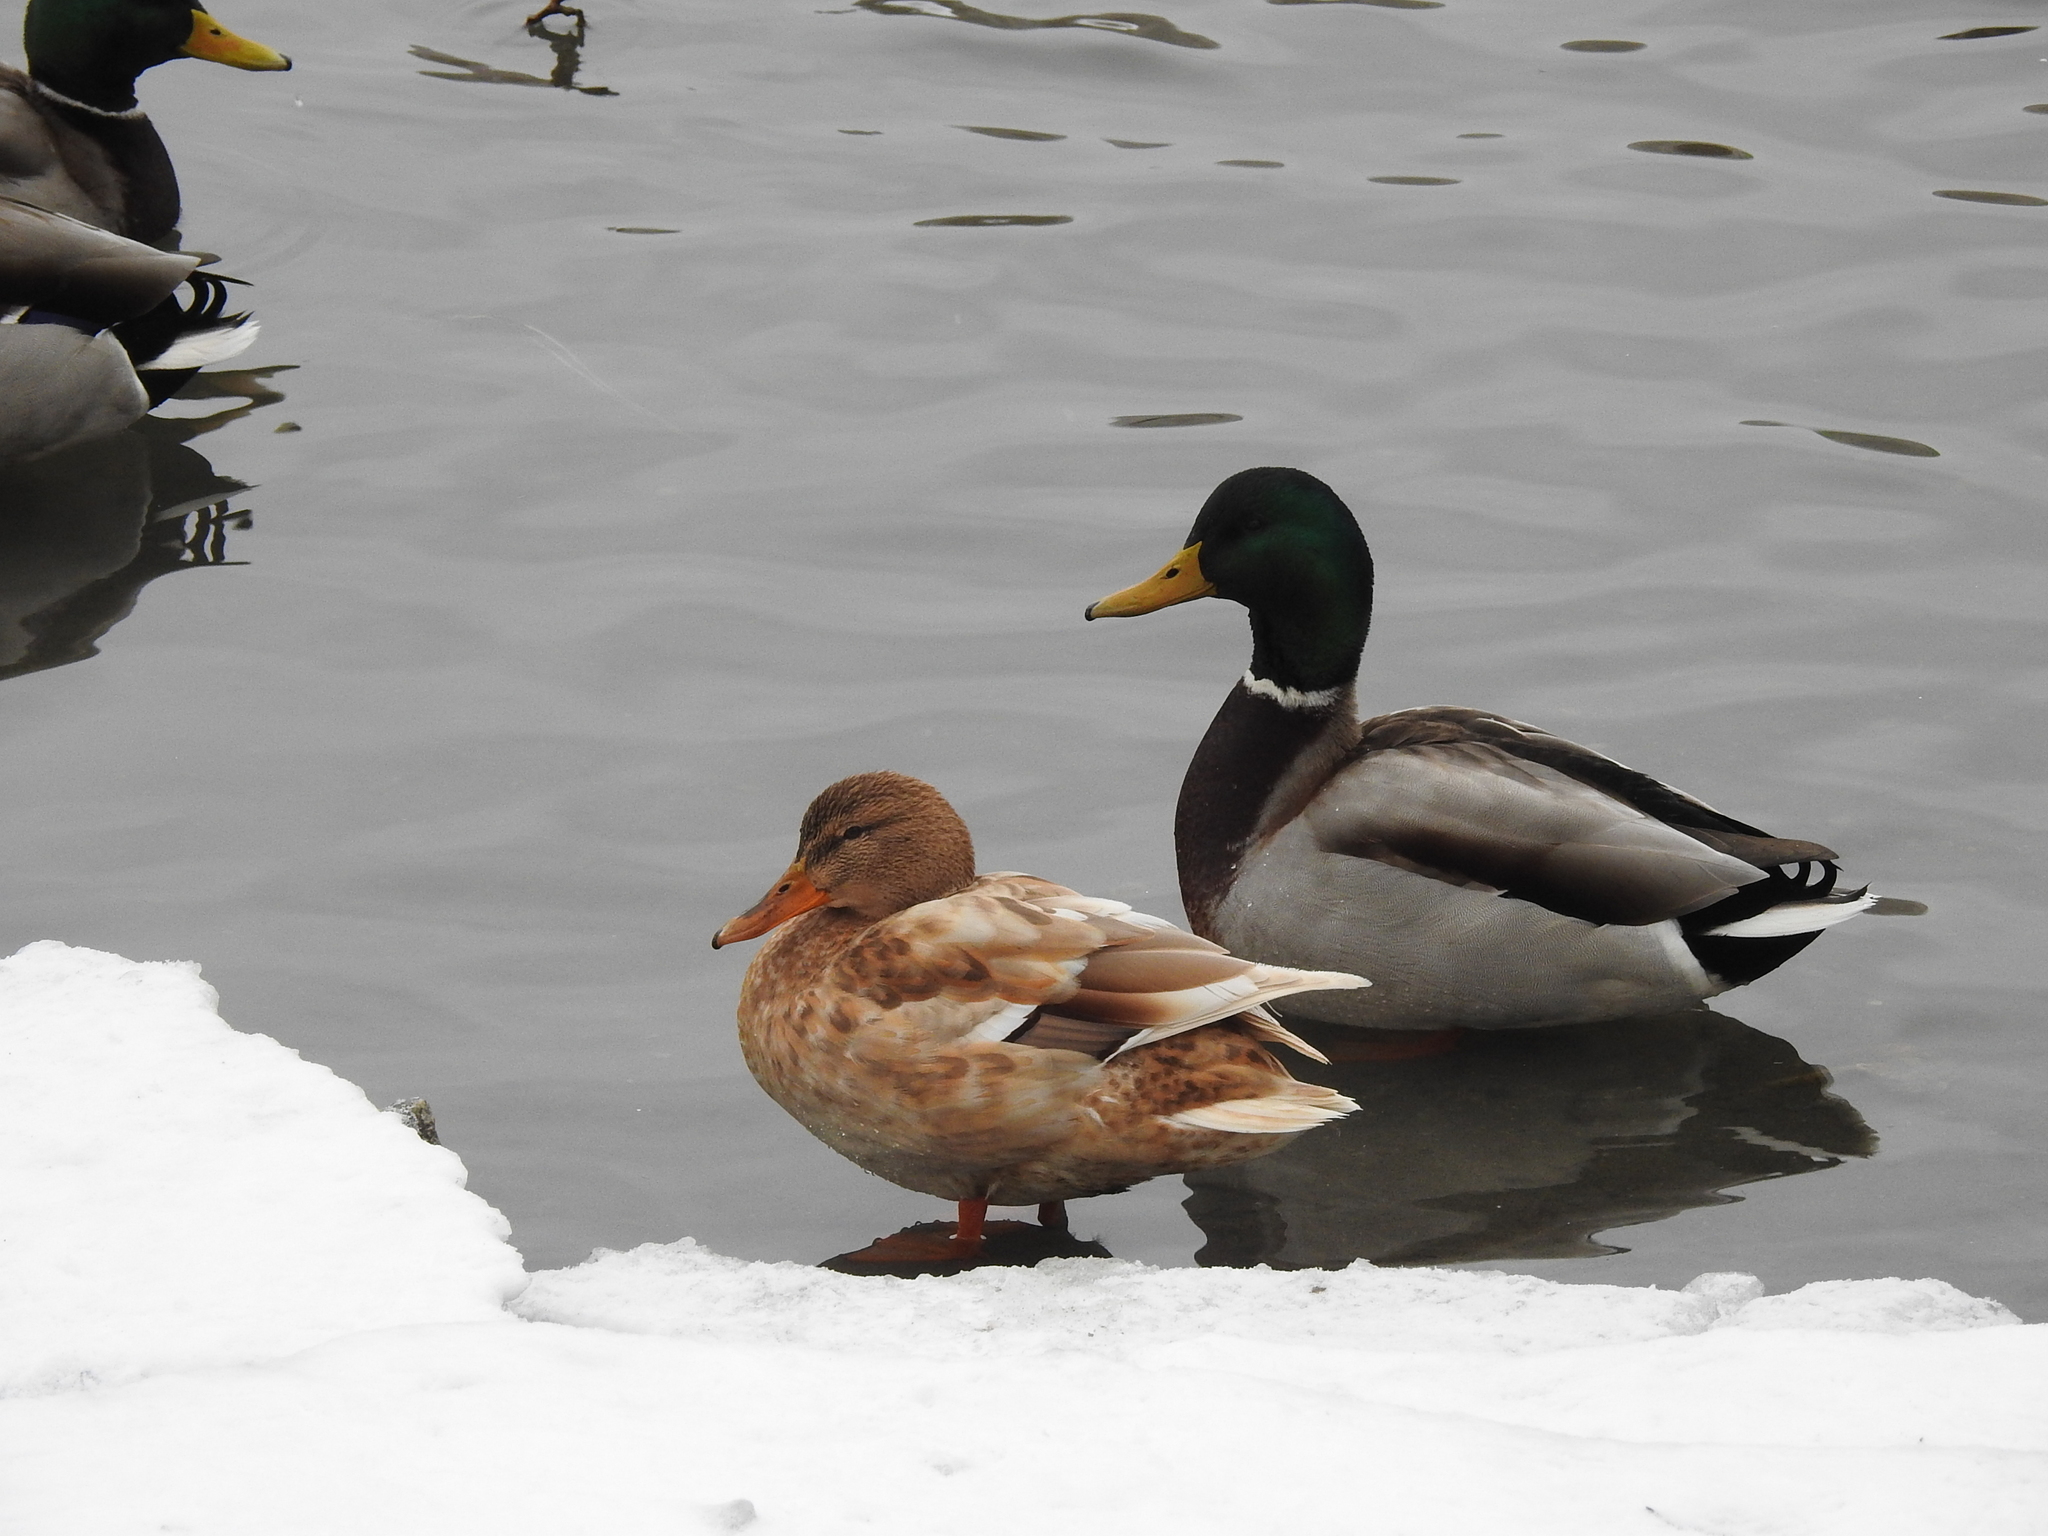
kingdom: Animalia
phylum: Chordata
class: Aves
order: Anseriformes
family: Anatidae
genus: Anas
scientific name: Anas platyrhynchos
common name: Mallard
